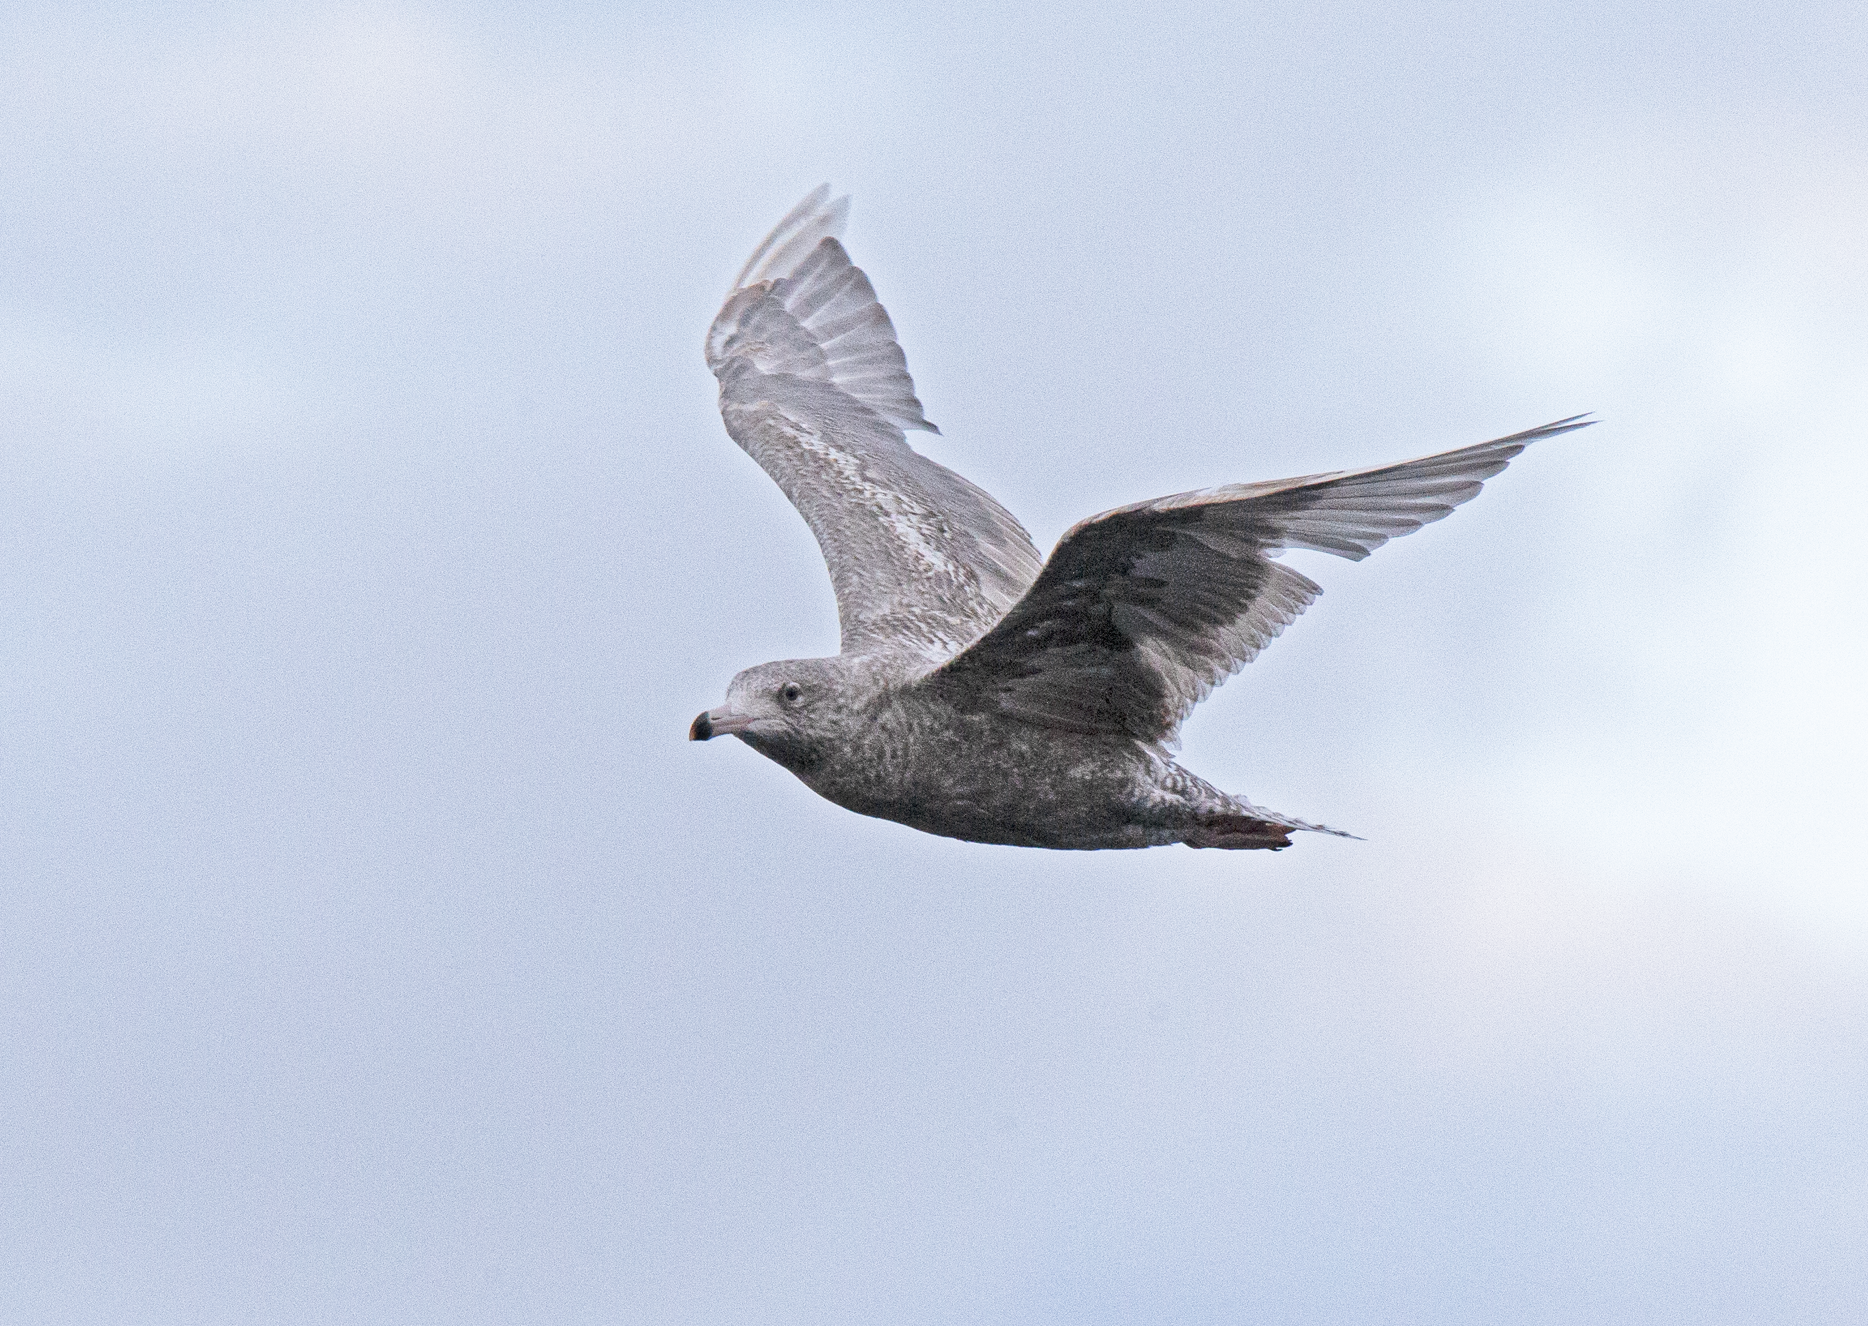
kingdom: Animalia
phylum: Chordata
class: Aves
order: Charadriiformes
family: Laridae
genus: Larus
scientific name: Larus hyperboreus
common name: Glaucous gull
